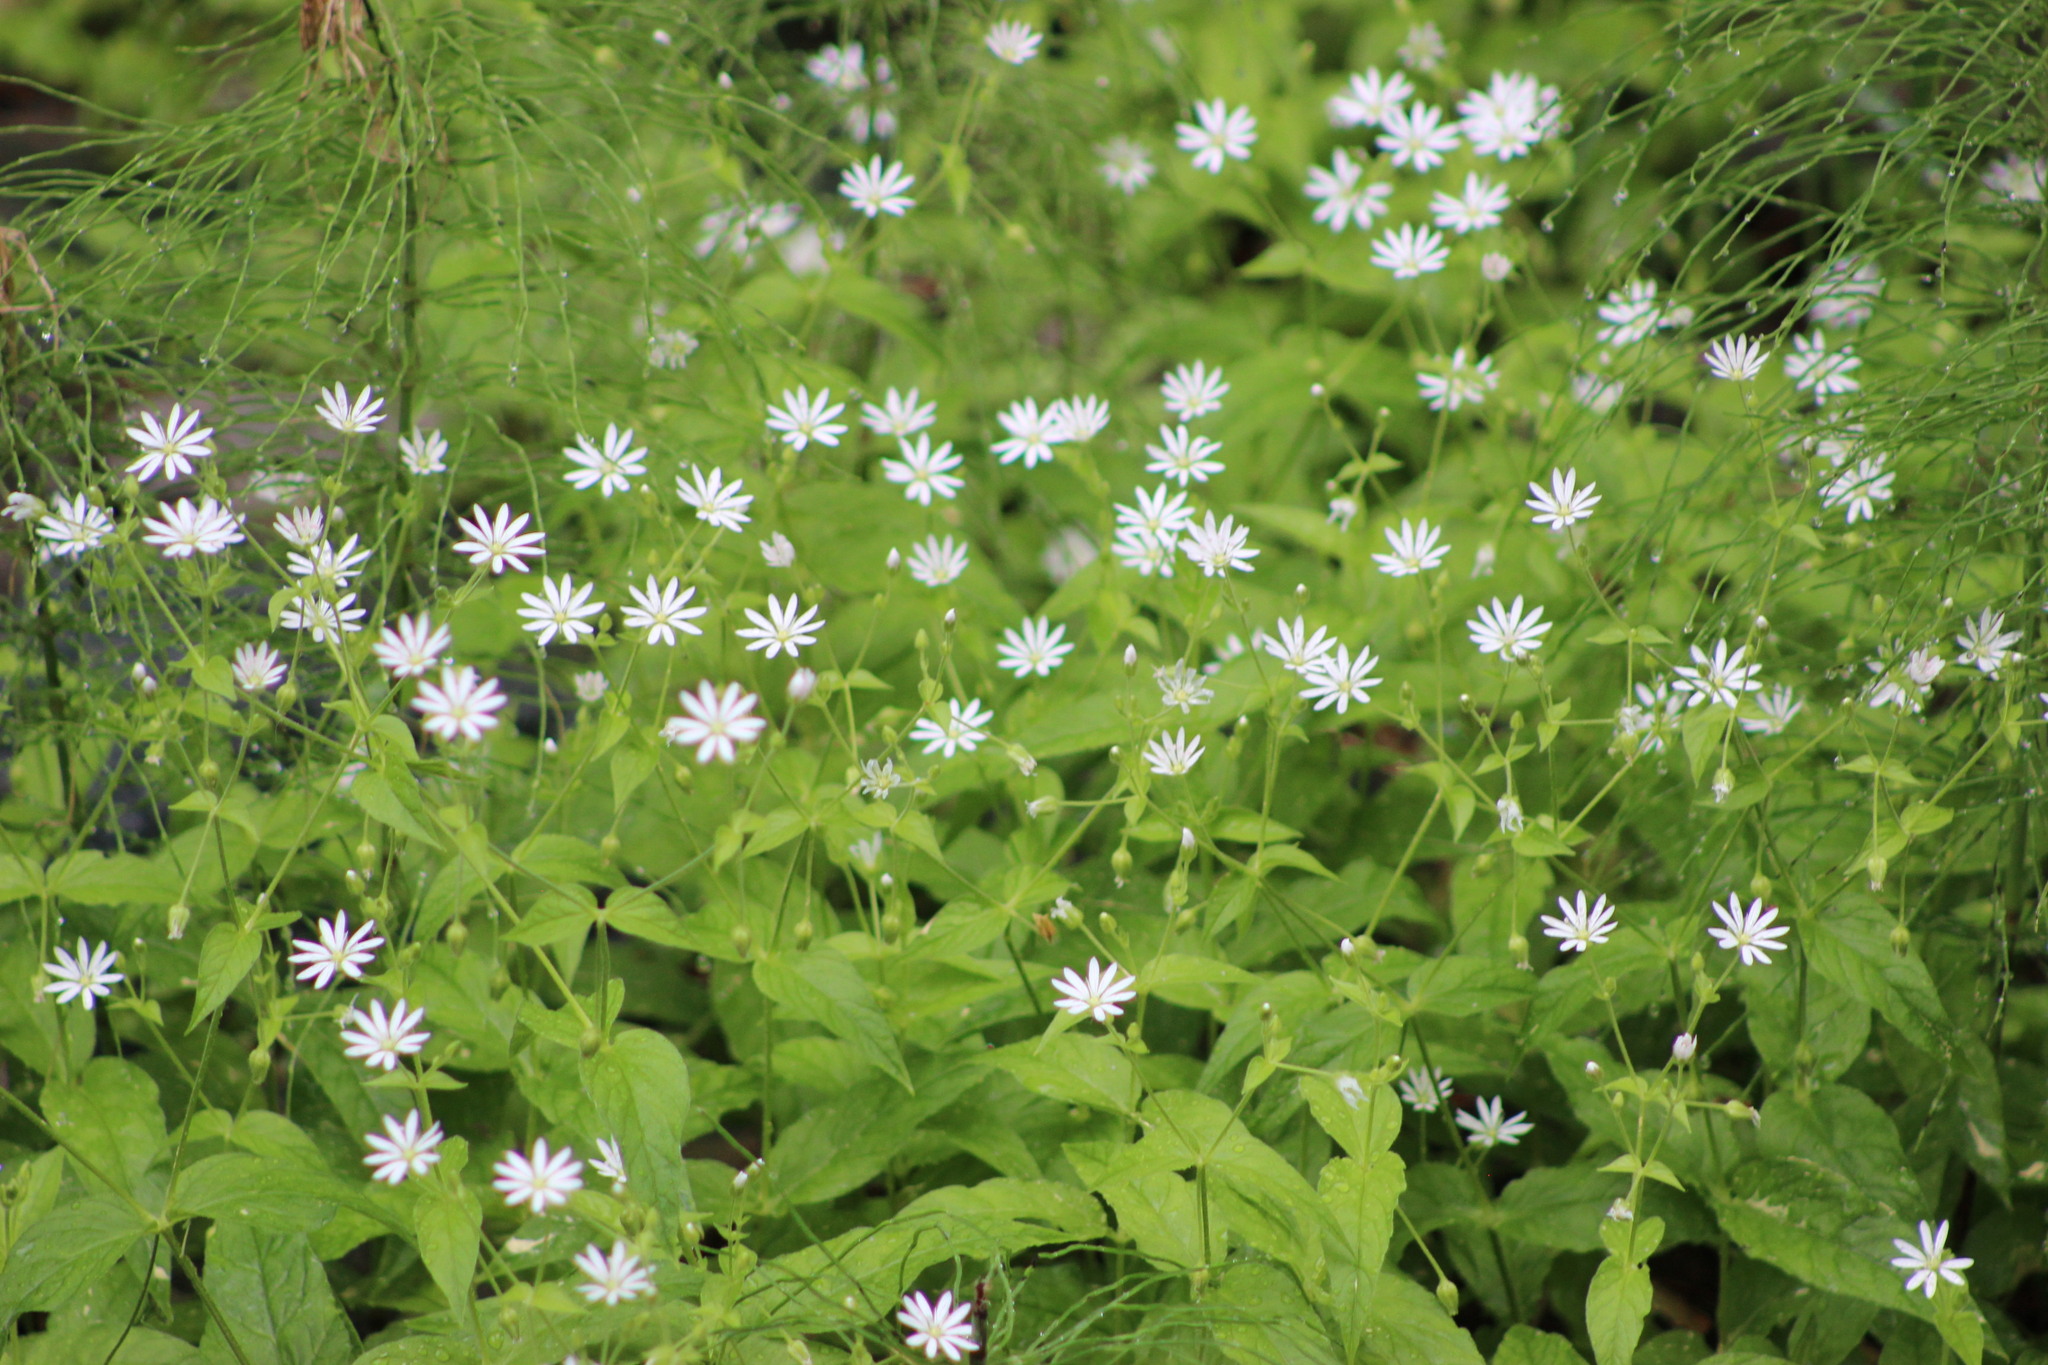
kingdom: Plantae
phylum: Tracheophyta
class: Magnoliopsida
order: Caryophyllales
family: Caryophyllaceae
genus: Stellaria
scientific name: Stellaria bungeana
